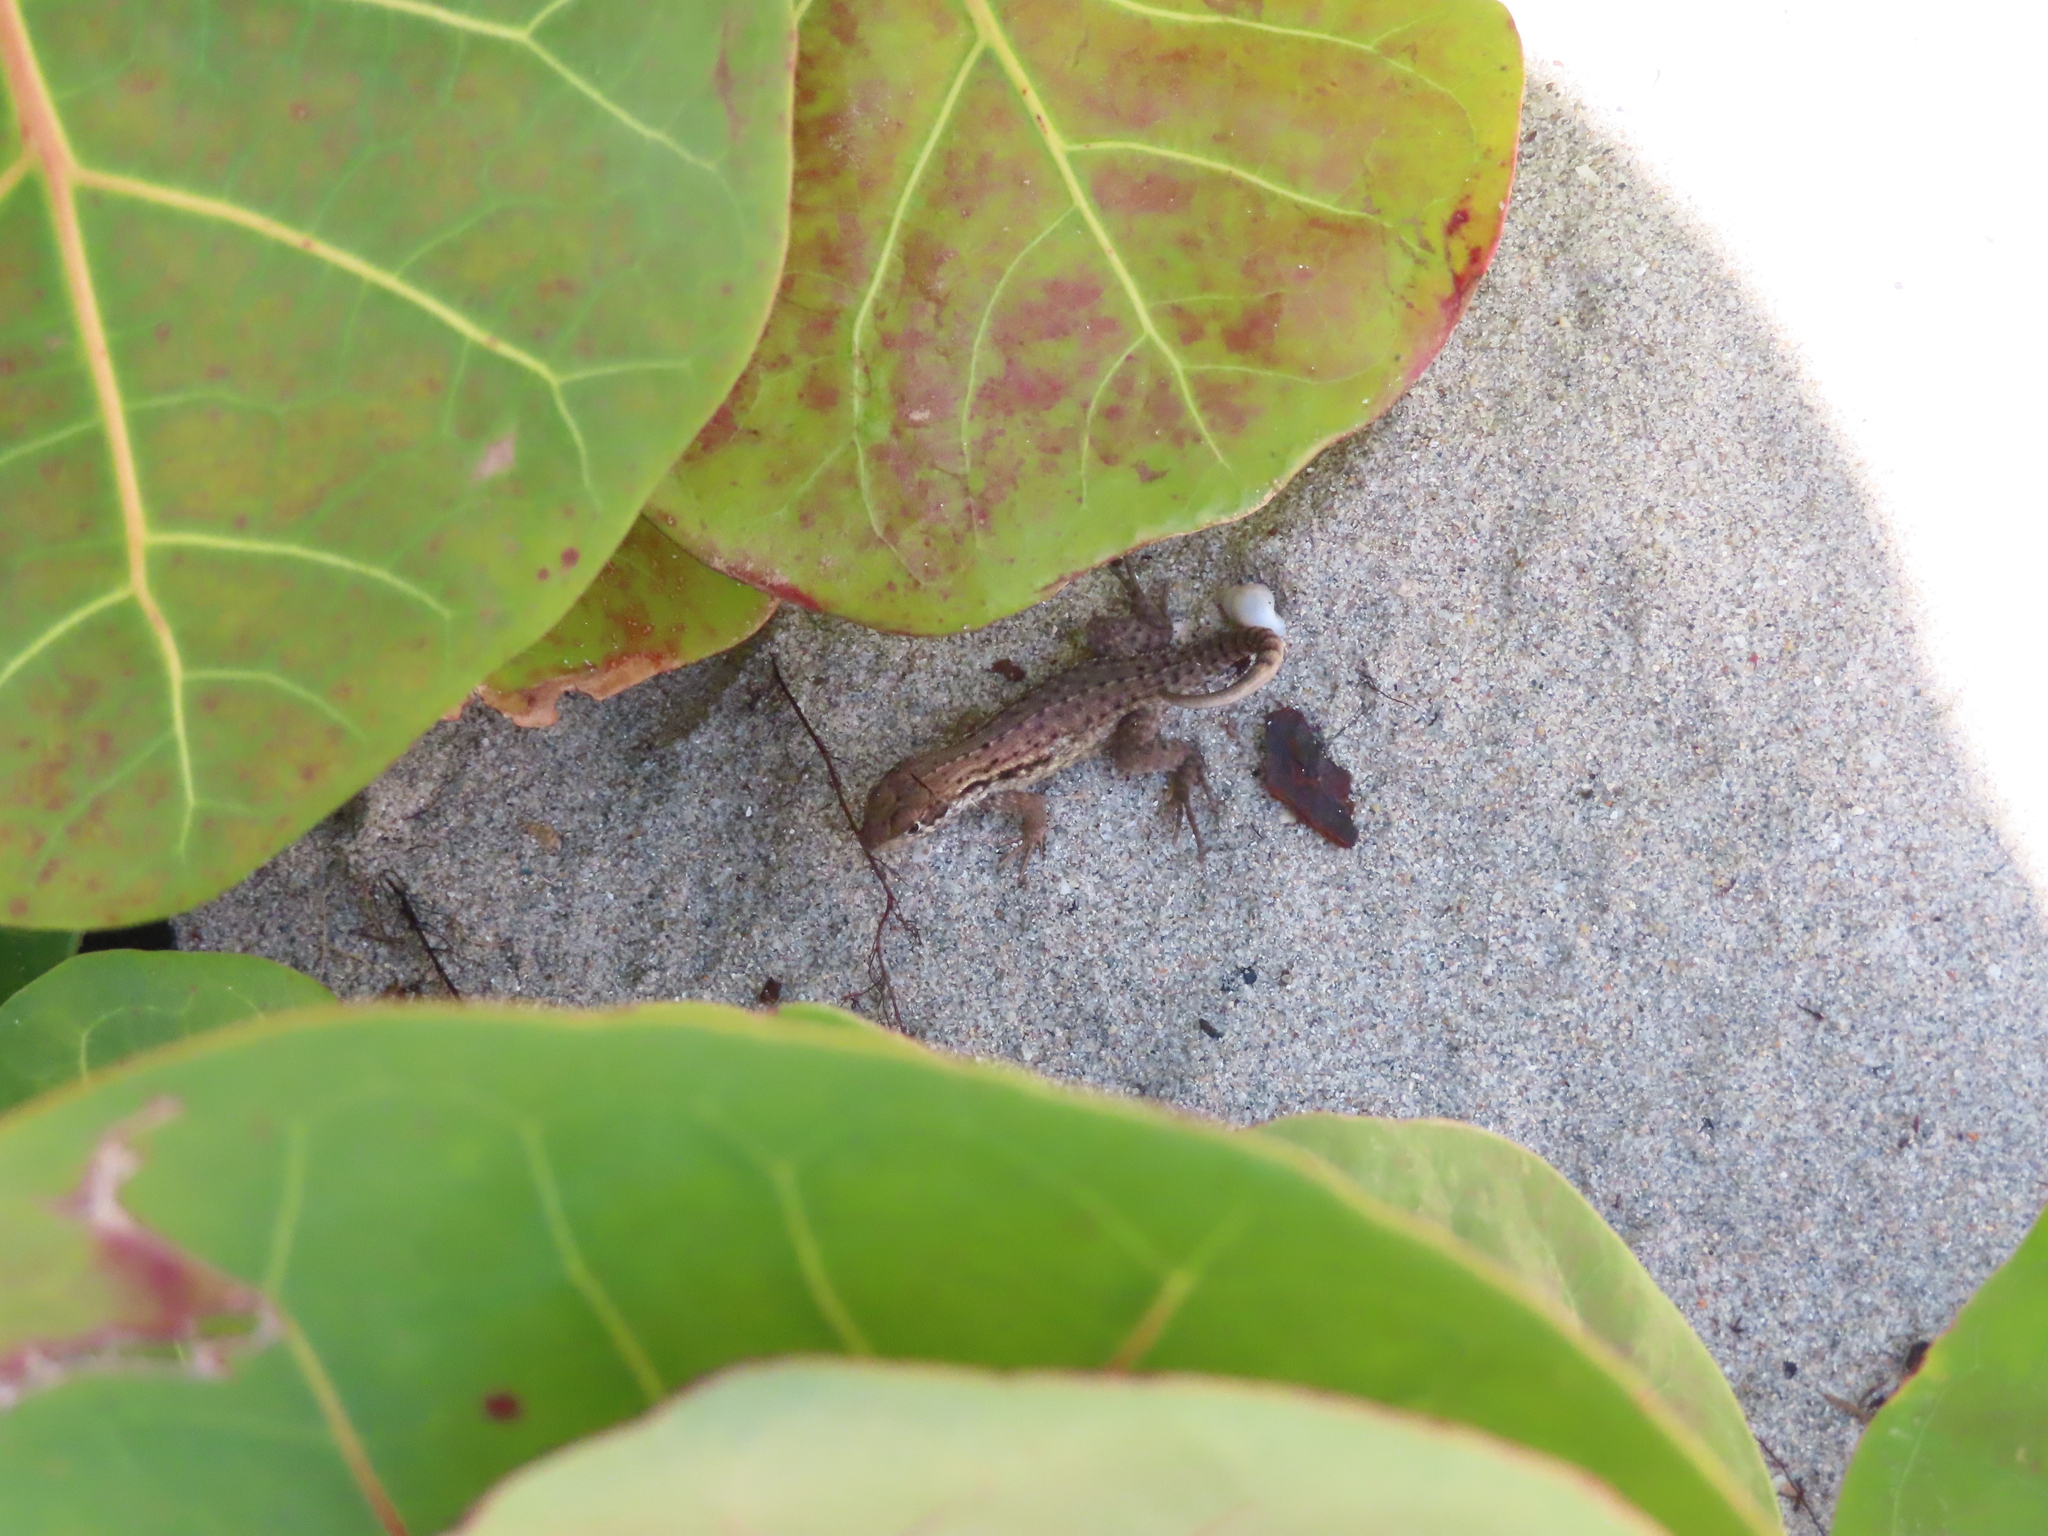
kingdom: Animalia
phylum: Chordata
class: Squamata
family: Leiocephalidae
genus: Leiocephalus
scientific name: Leiocephalus carinatus
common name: Northern curly-tailed lizard
